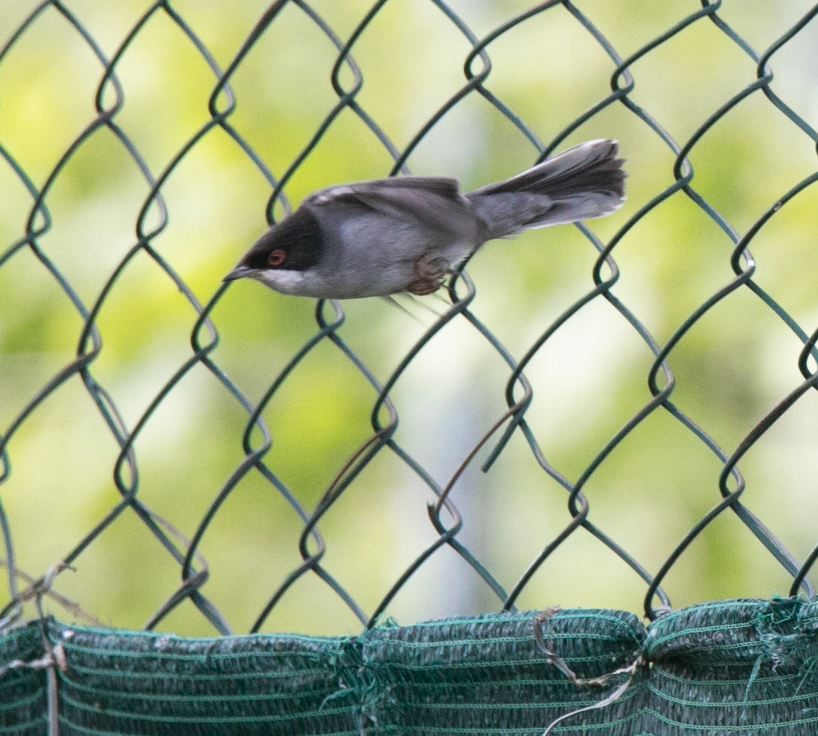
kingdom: Animalia
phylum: Chordata
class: Aves
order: Passeriformes
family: Sylviidae
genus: Curruca
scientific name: Curruca melanocephala
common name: Sardinian warbler
